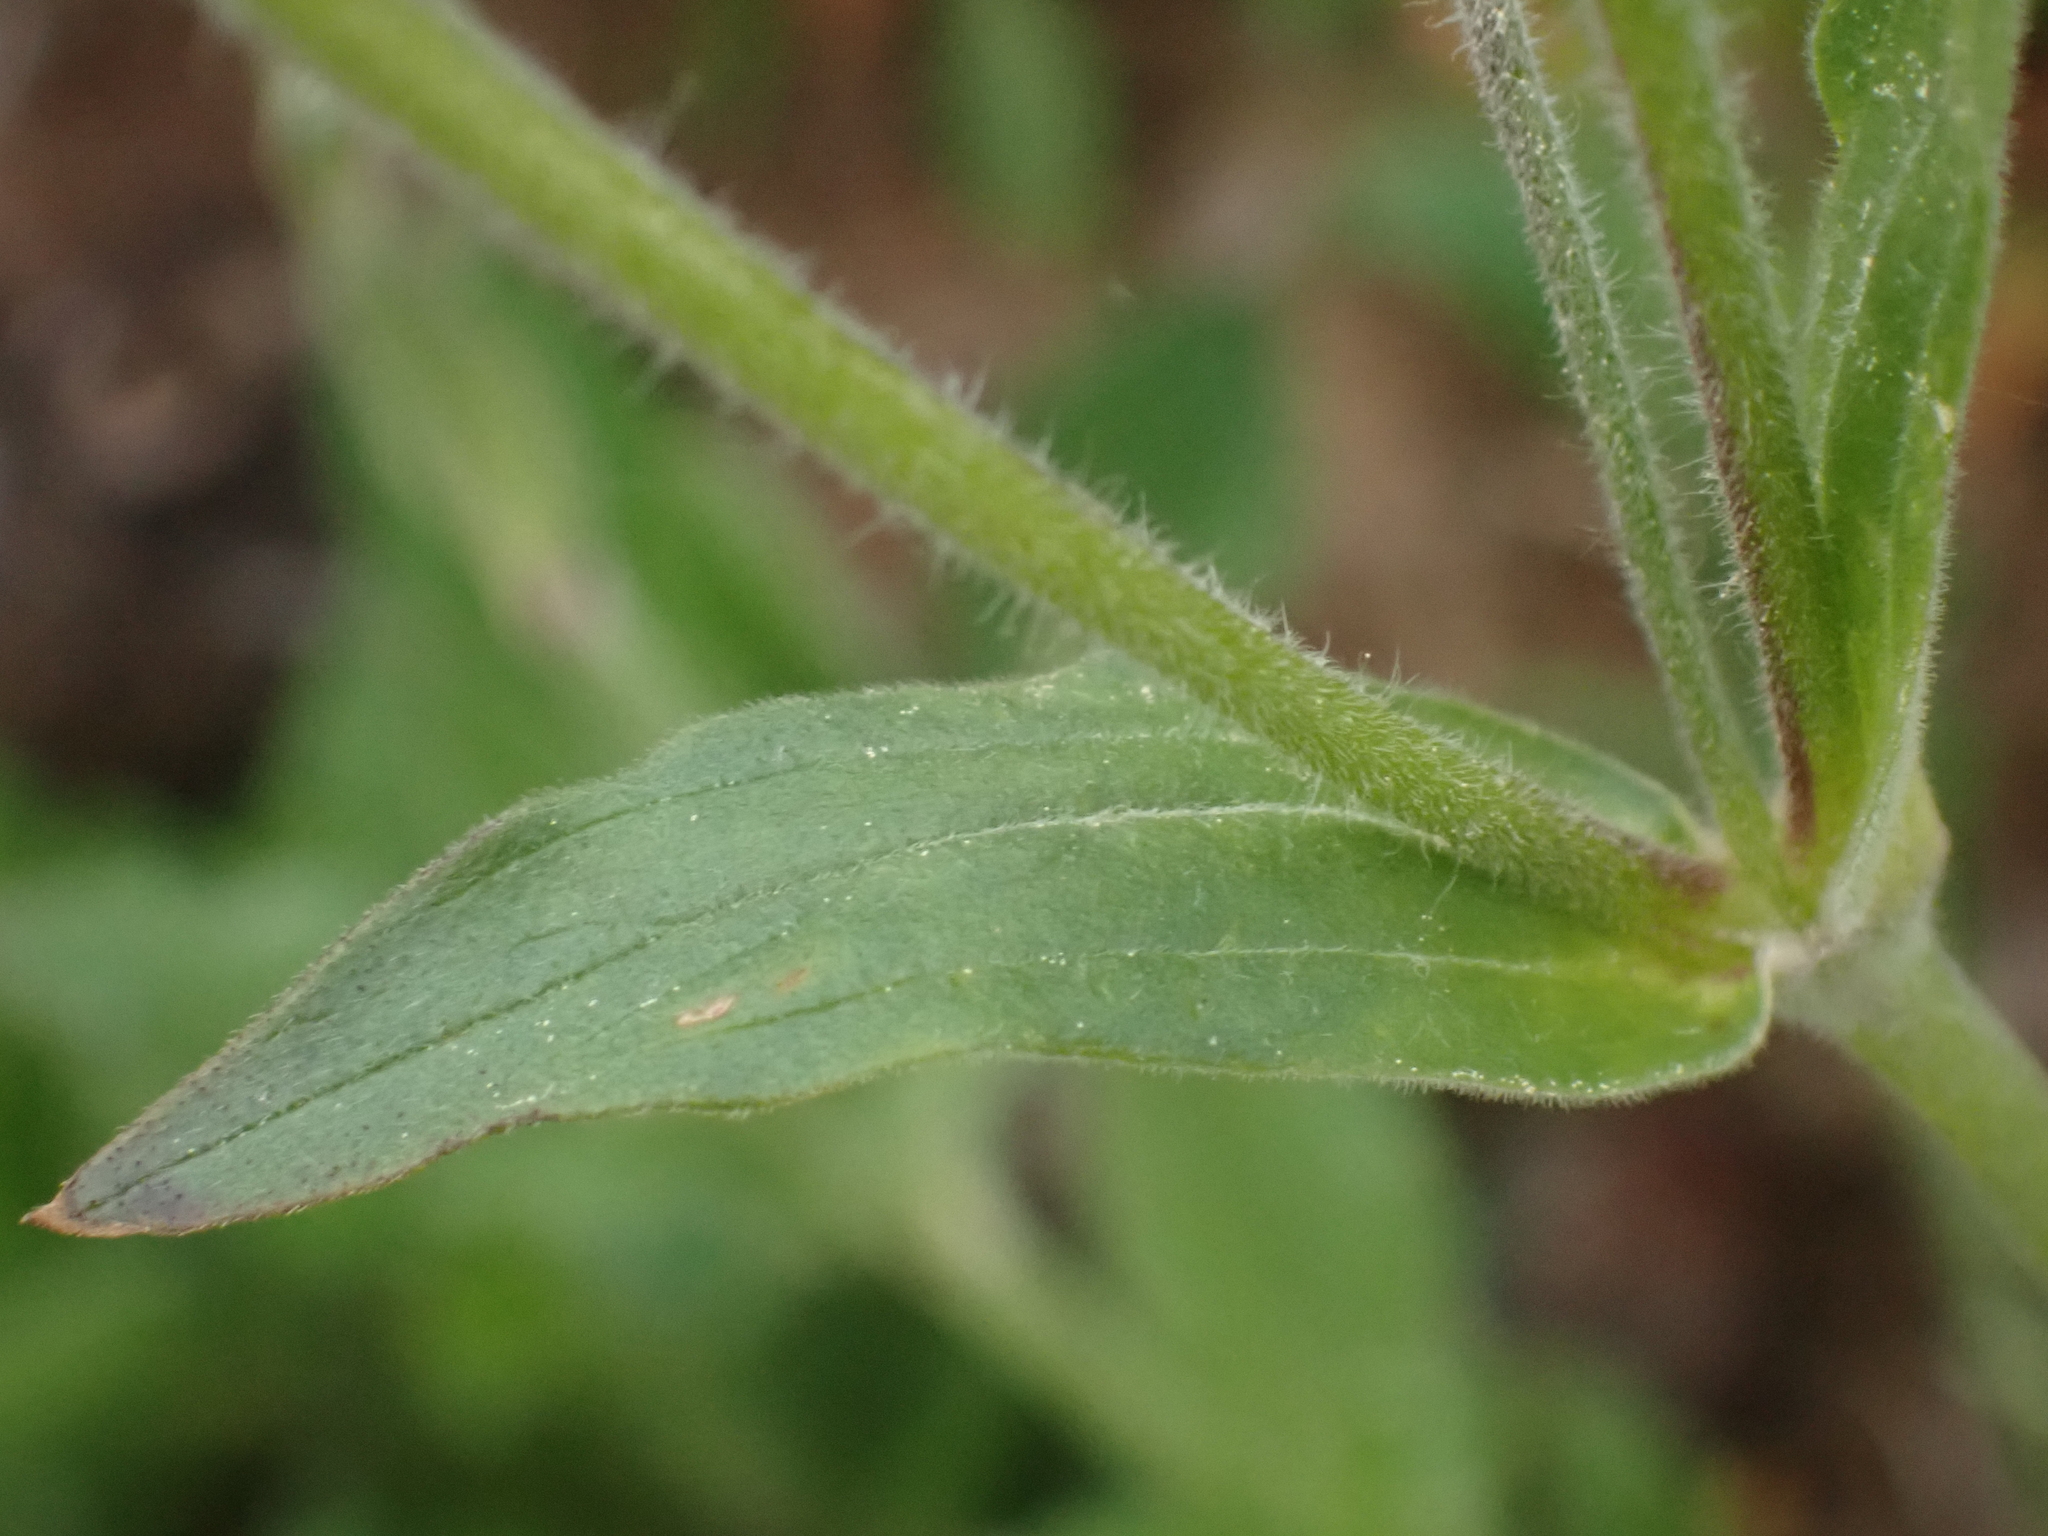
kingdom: Plantae
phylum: Tracheophyta
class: Magnoliopsida
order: Caryophyllales
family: Caryophyllaceae
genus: Silene
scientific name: Silene latifolia
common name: White campion
